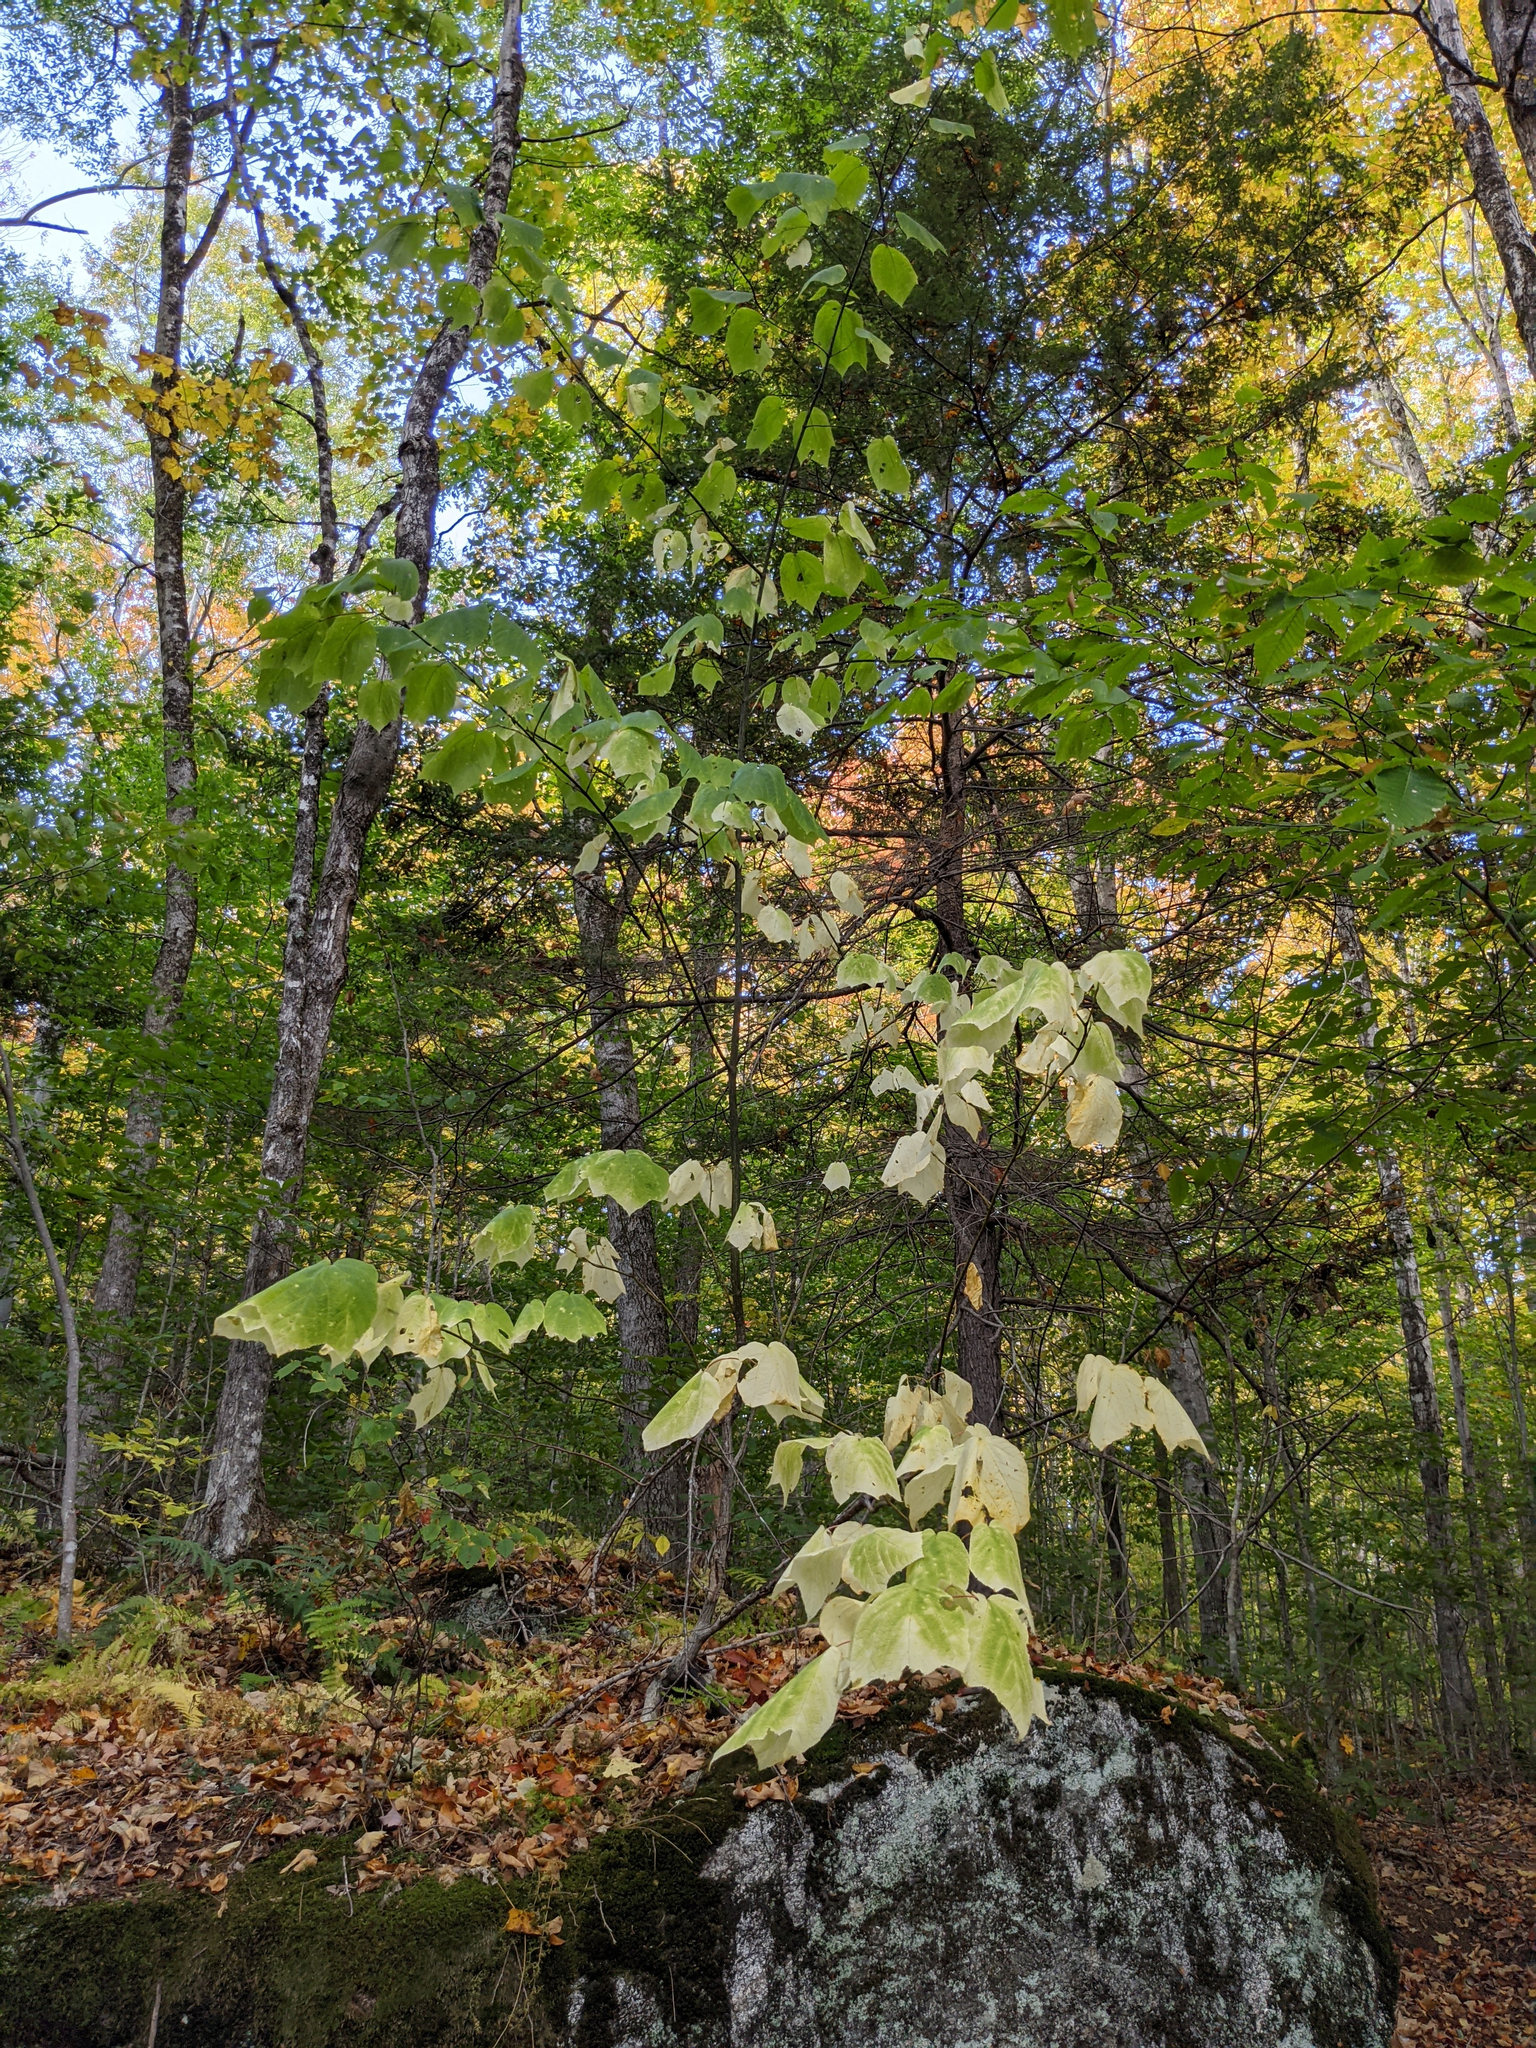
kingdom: Plantae
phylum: Tracheophyta
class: Magnoliopsida
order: Sapindales
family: Sapindaceae
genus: Acer
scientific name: Acer pensylvanicum
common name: Moosewood
